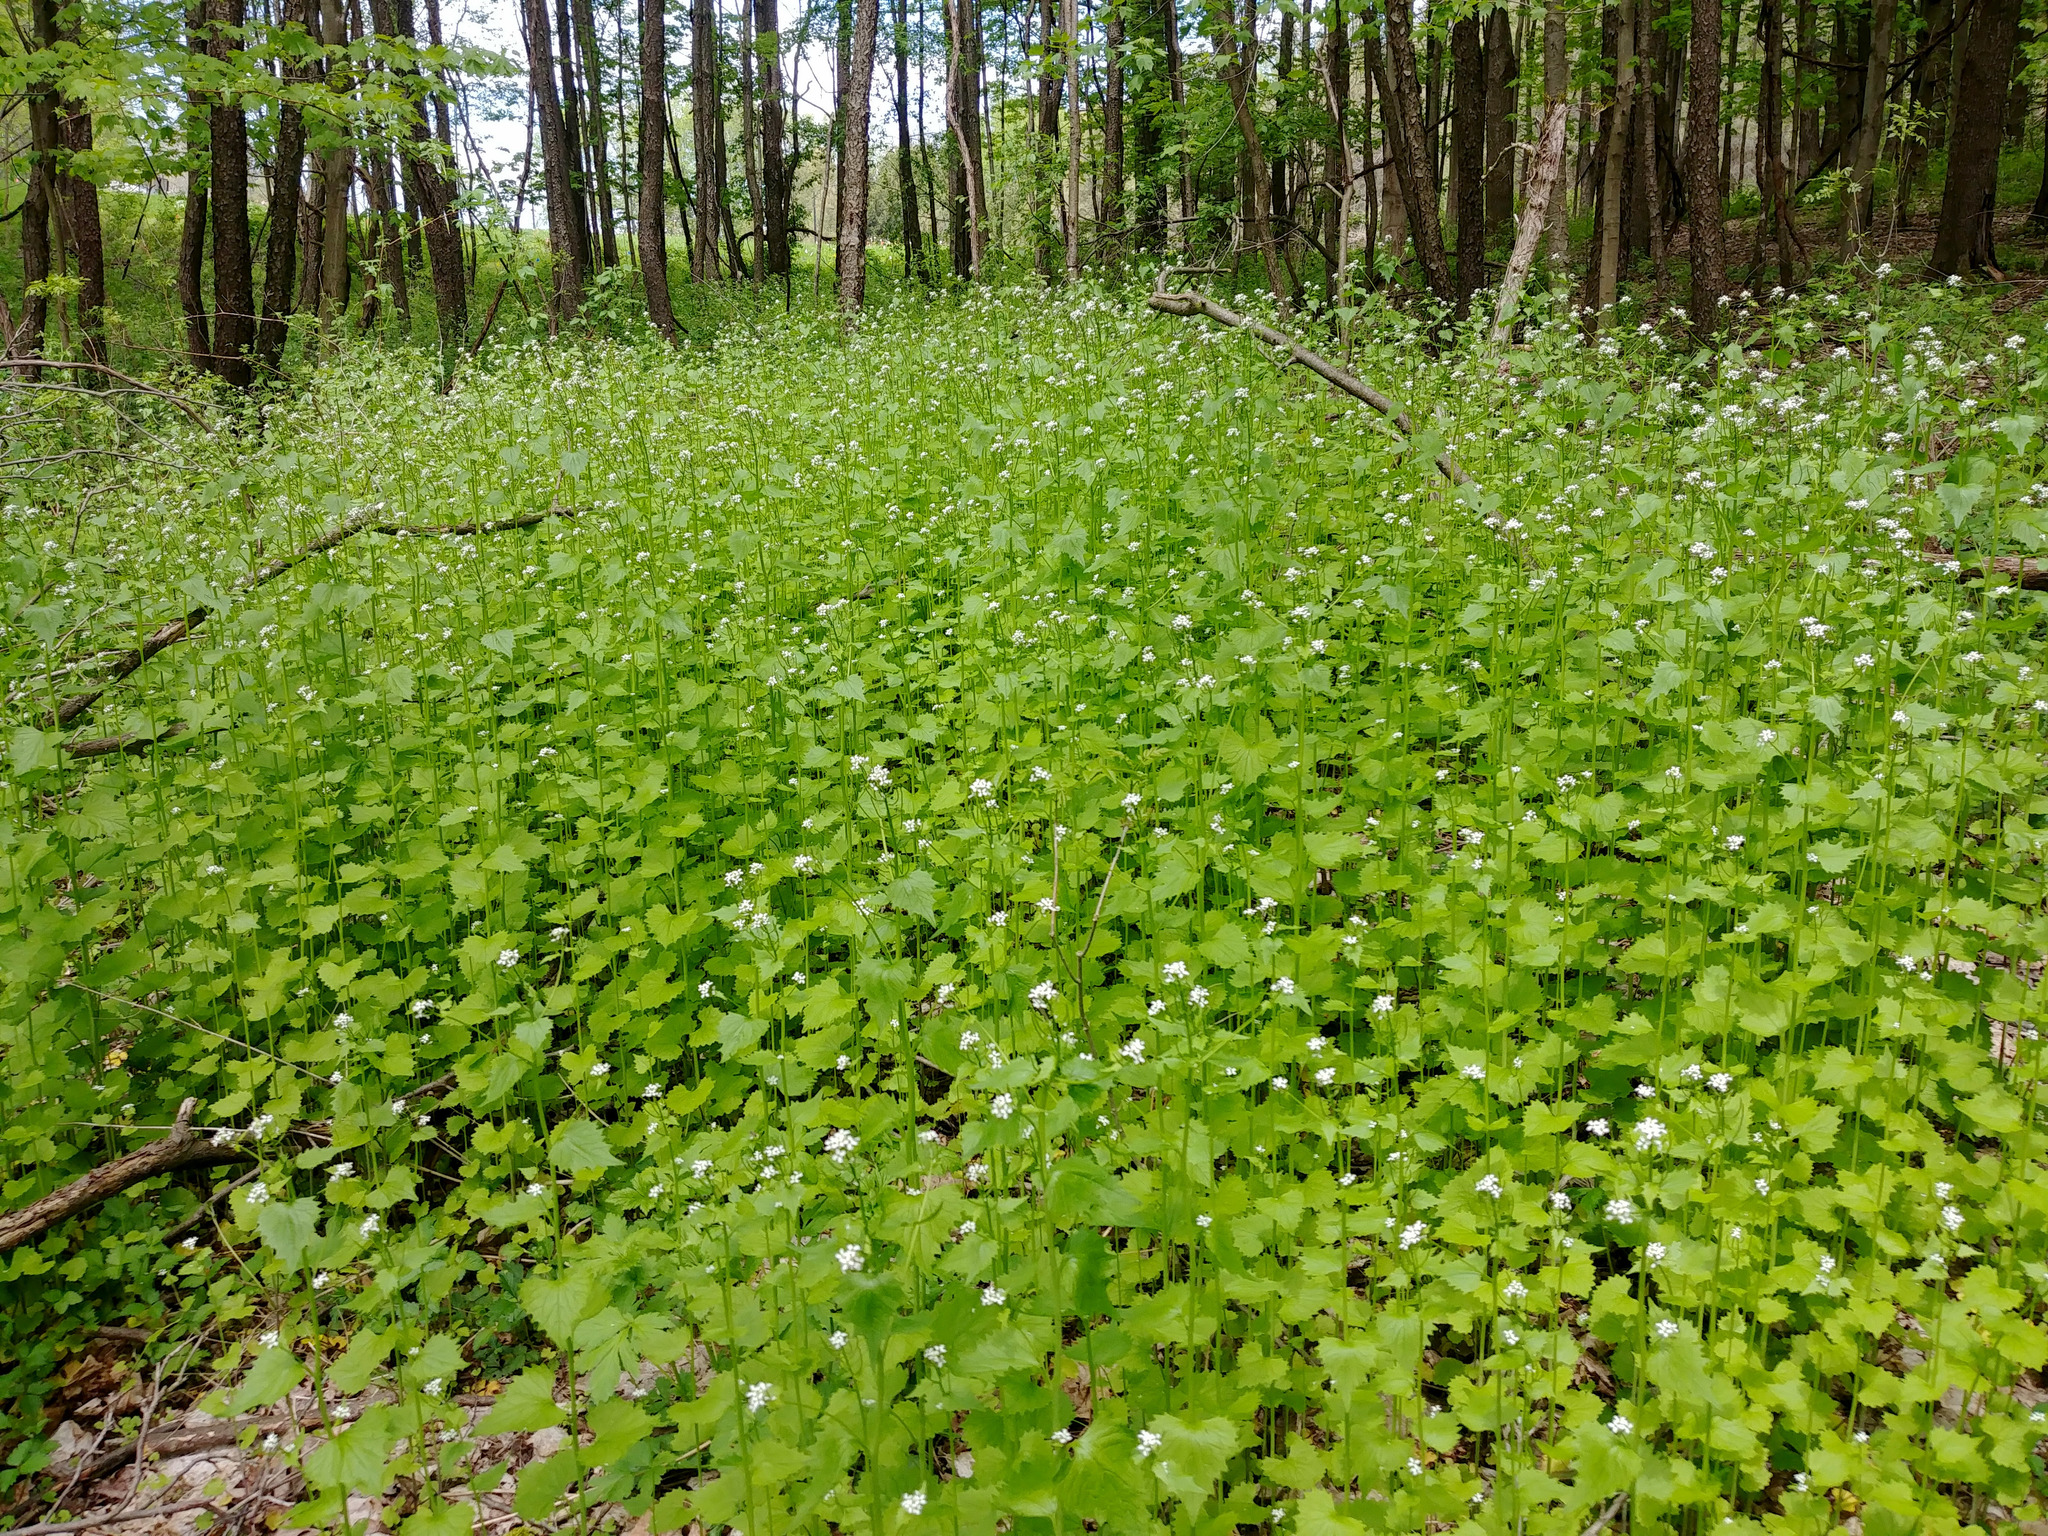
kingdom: Plantae
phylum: Tracheophyta
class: Magnoliopsida
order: Brassicales
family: Brassicaceae
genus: Alliaria
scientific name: Alliaria petiolata
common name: Garlic mustard
